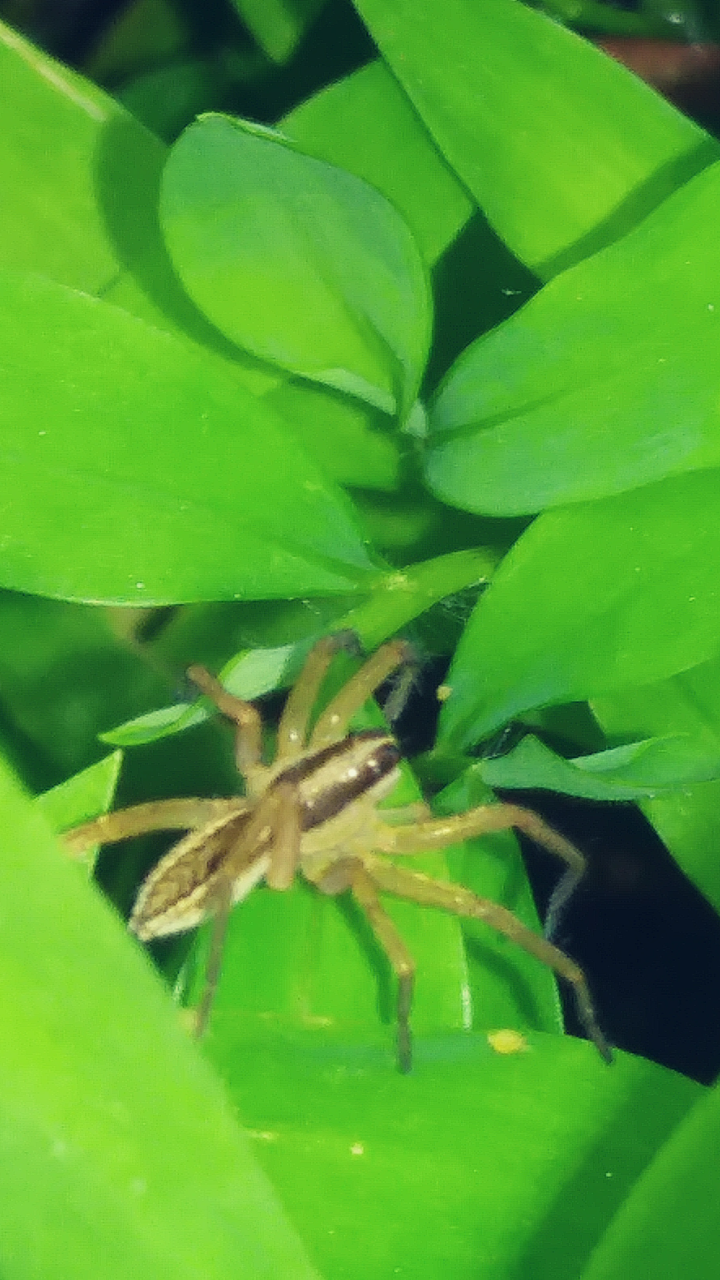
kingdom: Animalia
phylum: Arthropoda
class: Arachnida
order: Araneae
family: Lycosidae
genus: Rabidosa
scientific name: Rabidosa rabida
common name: Rabid wolf spider
